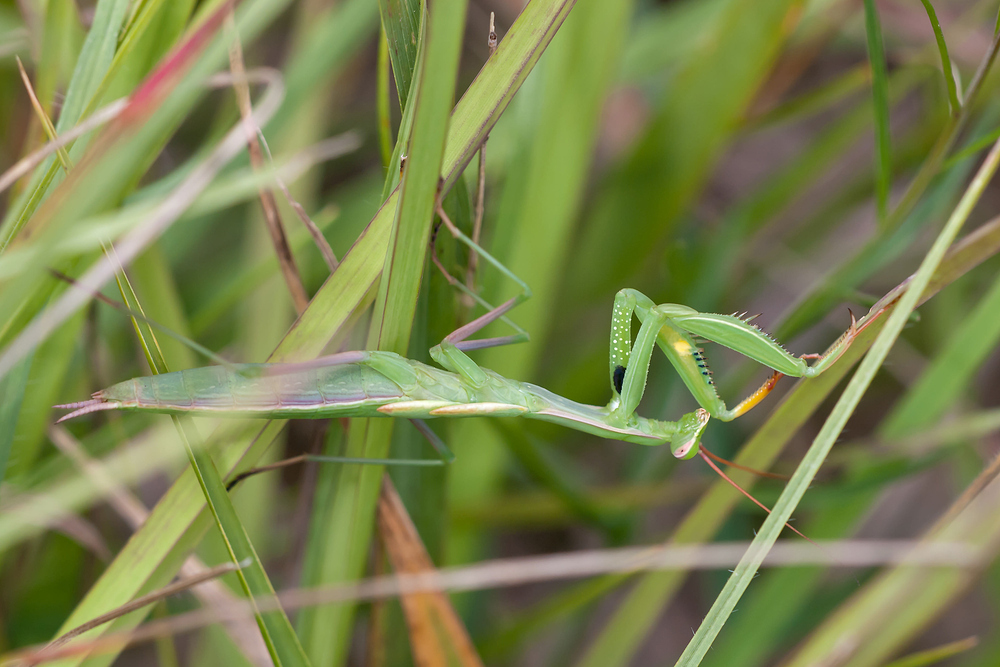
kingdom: Animalia
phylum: Arthropoda
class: Insecta
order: Mantodea
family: Mantidae
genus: Mantis
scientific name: Mantis religiosa
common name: Praying mantis
